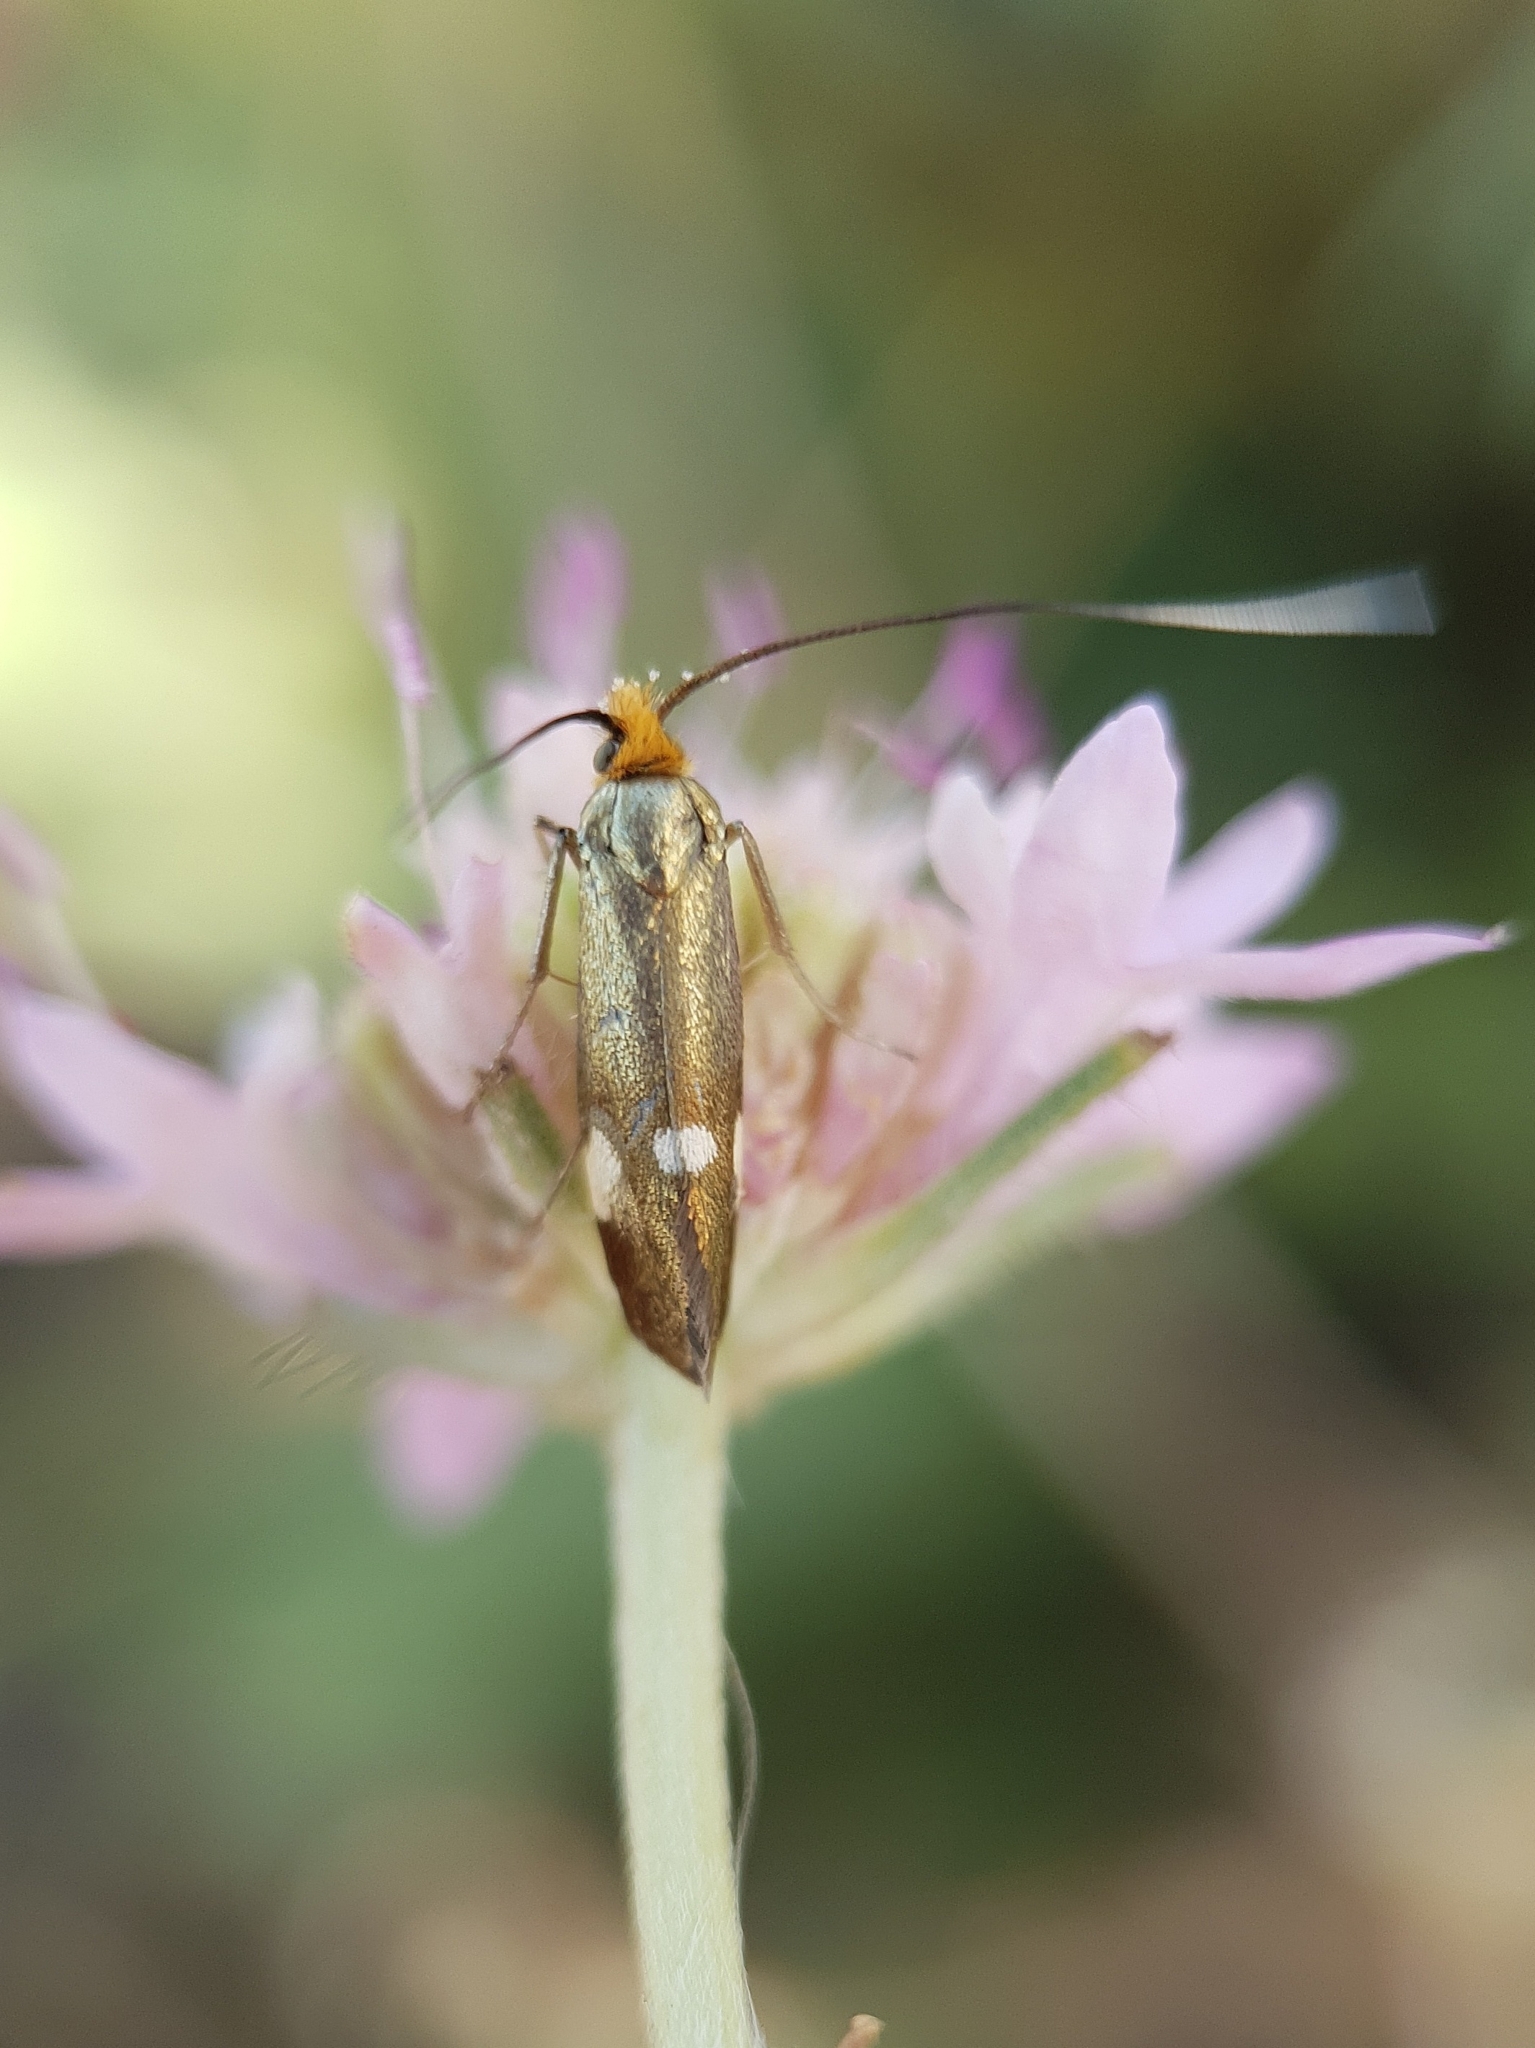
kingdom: Animalia
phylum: Arthropoda
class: Insecta
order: Lepidoptera
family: Adelidae
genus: Nemophora
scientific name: Nemophora raddaella
